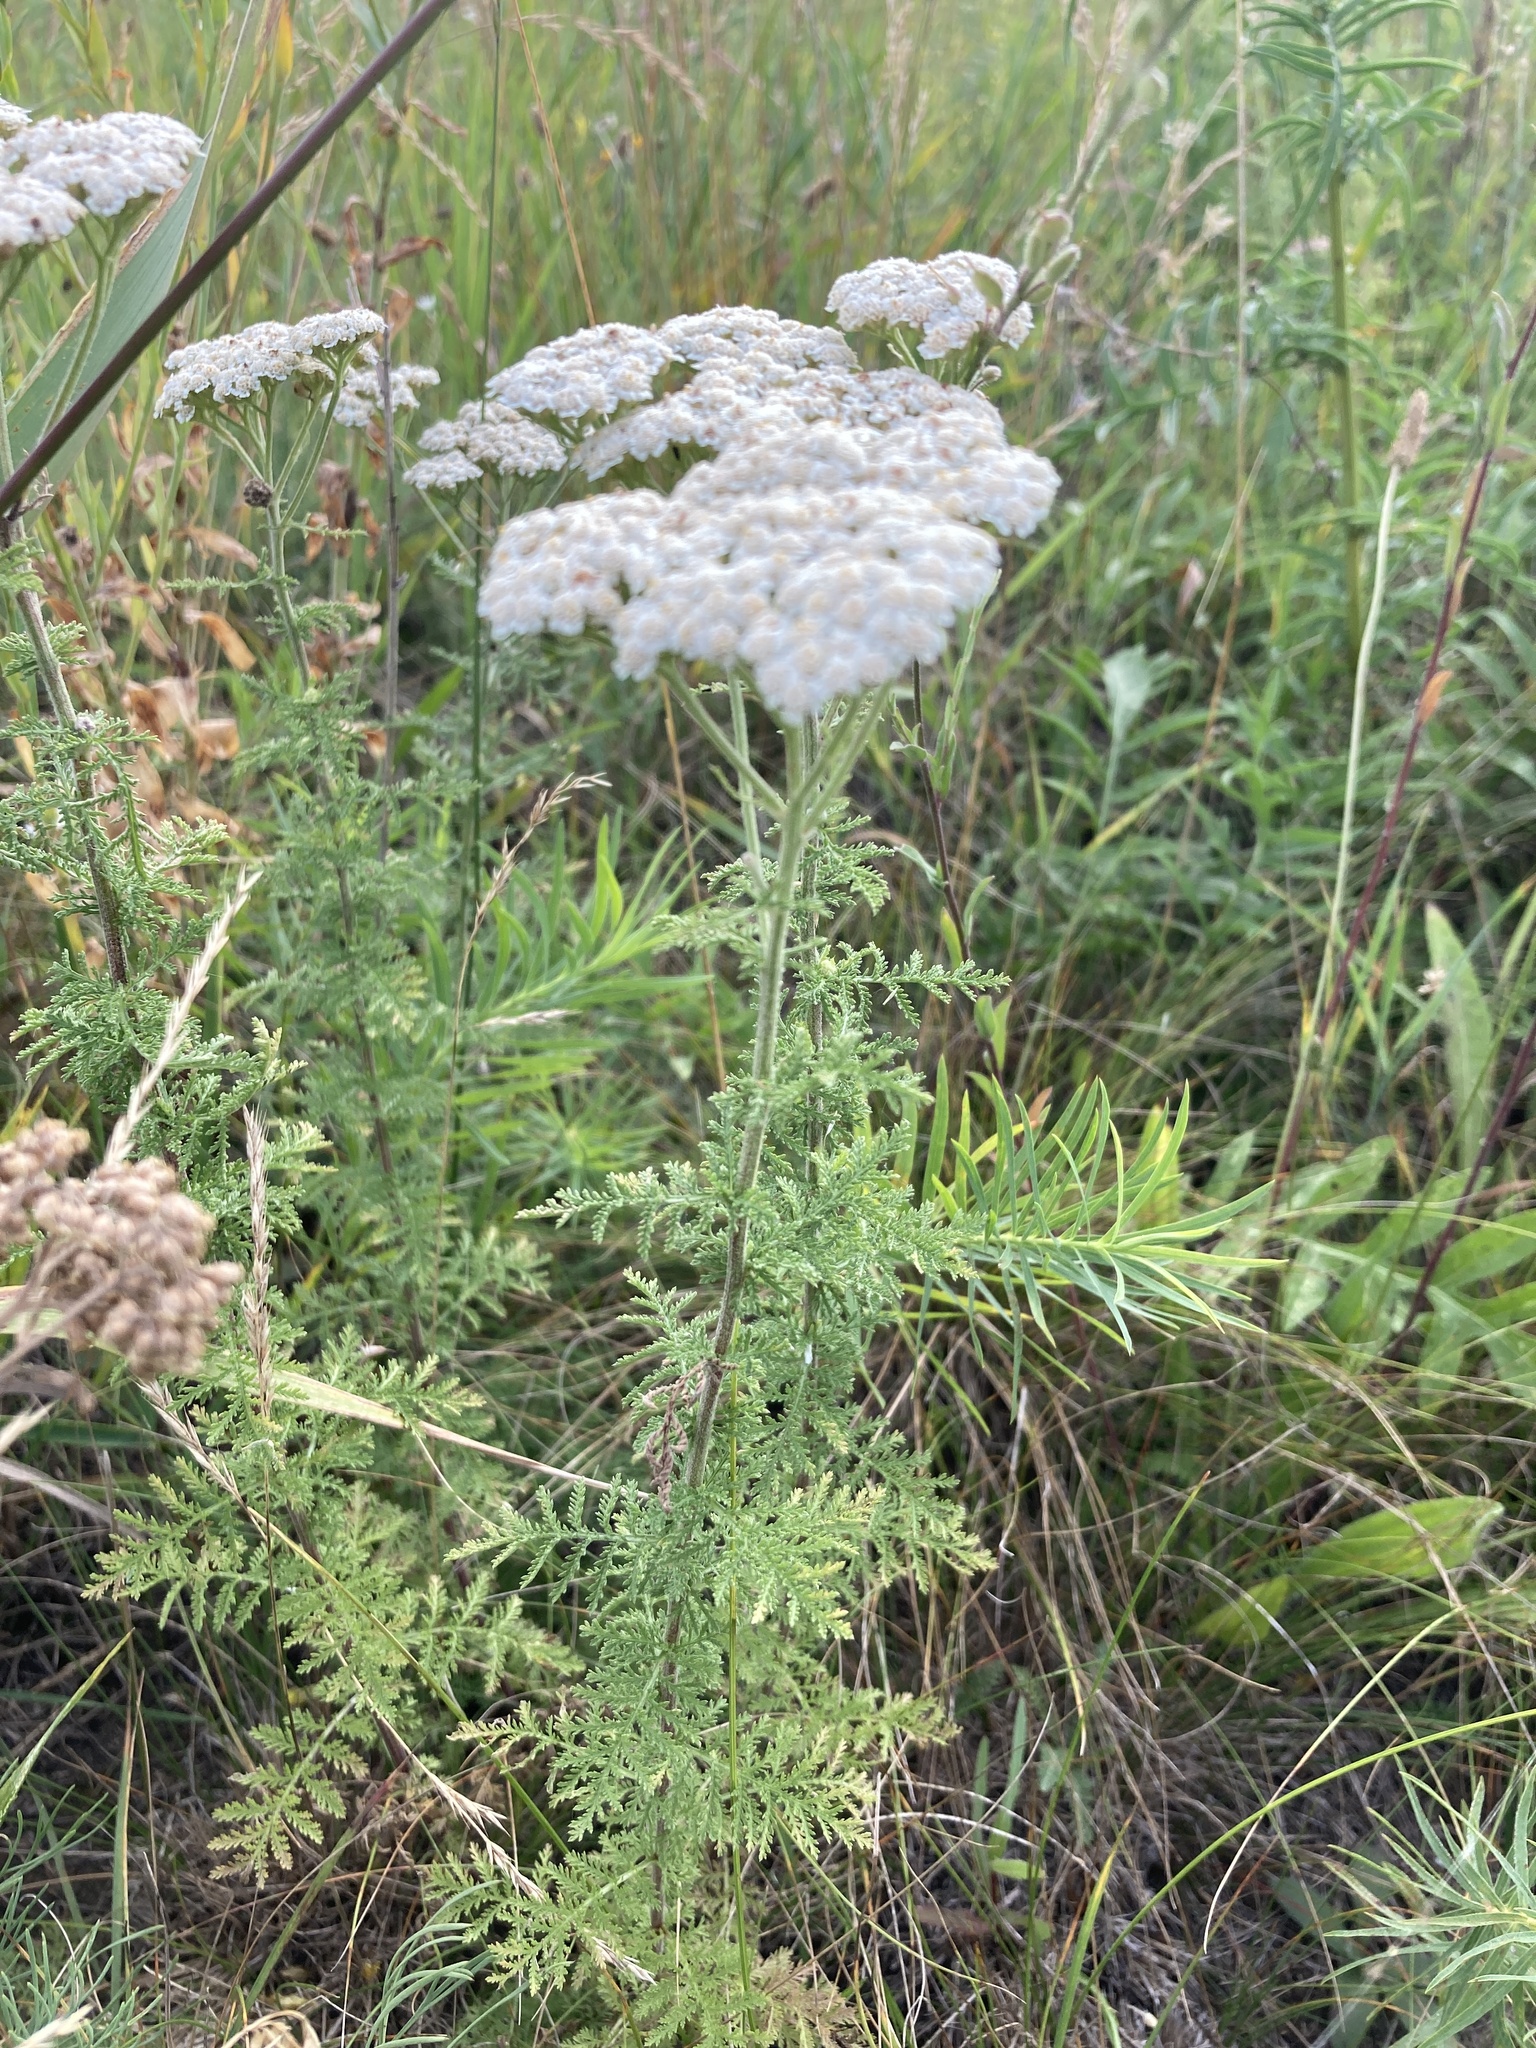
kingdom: Plantae
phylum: Tracheophyta
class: Magnoliopsida
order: Asterales
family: Asteraceae
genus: Achillea
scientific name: Achillea nobilis
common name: Noble yarrow
